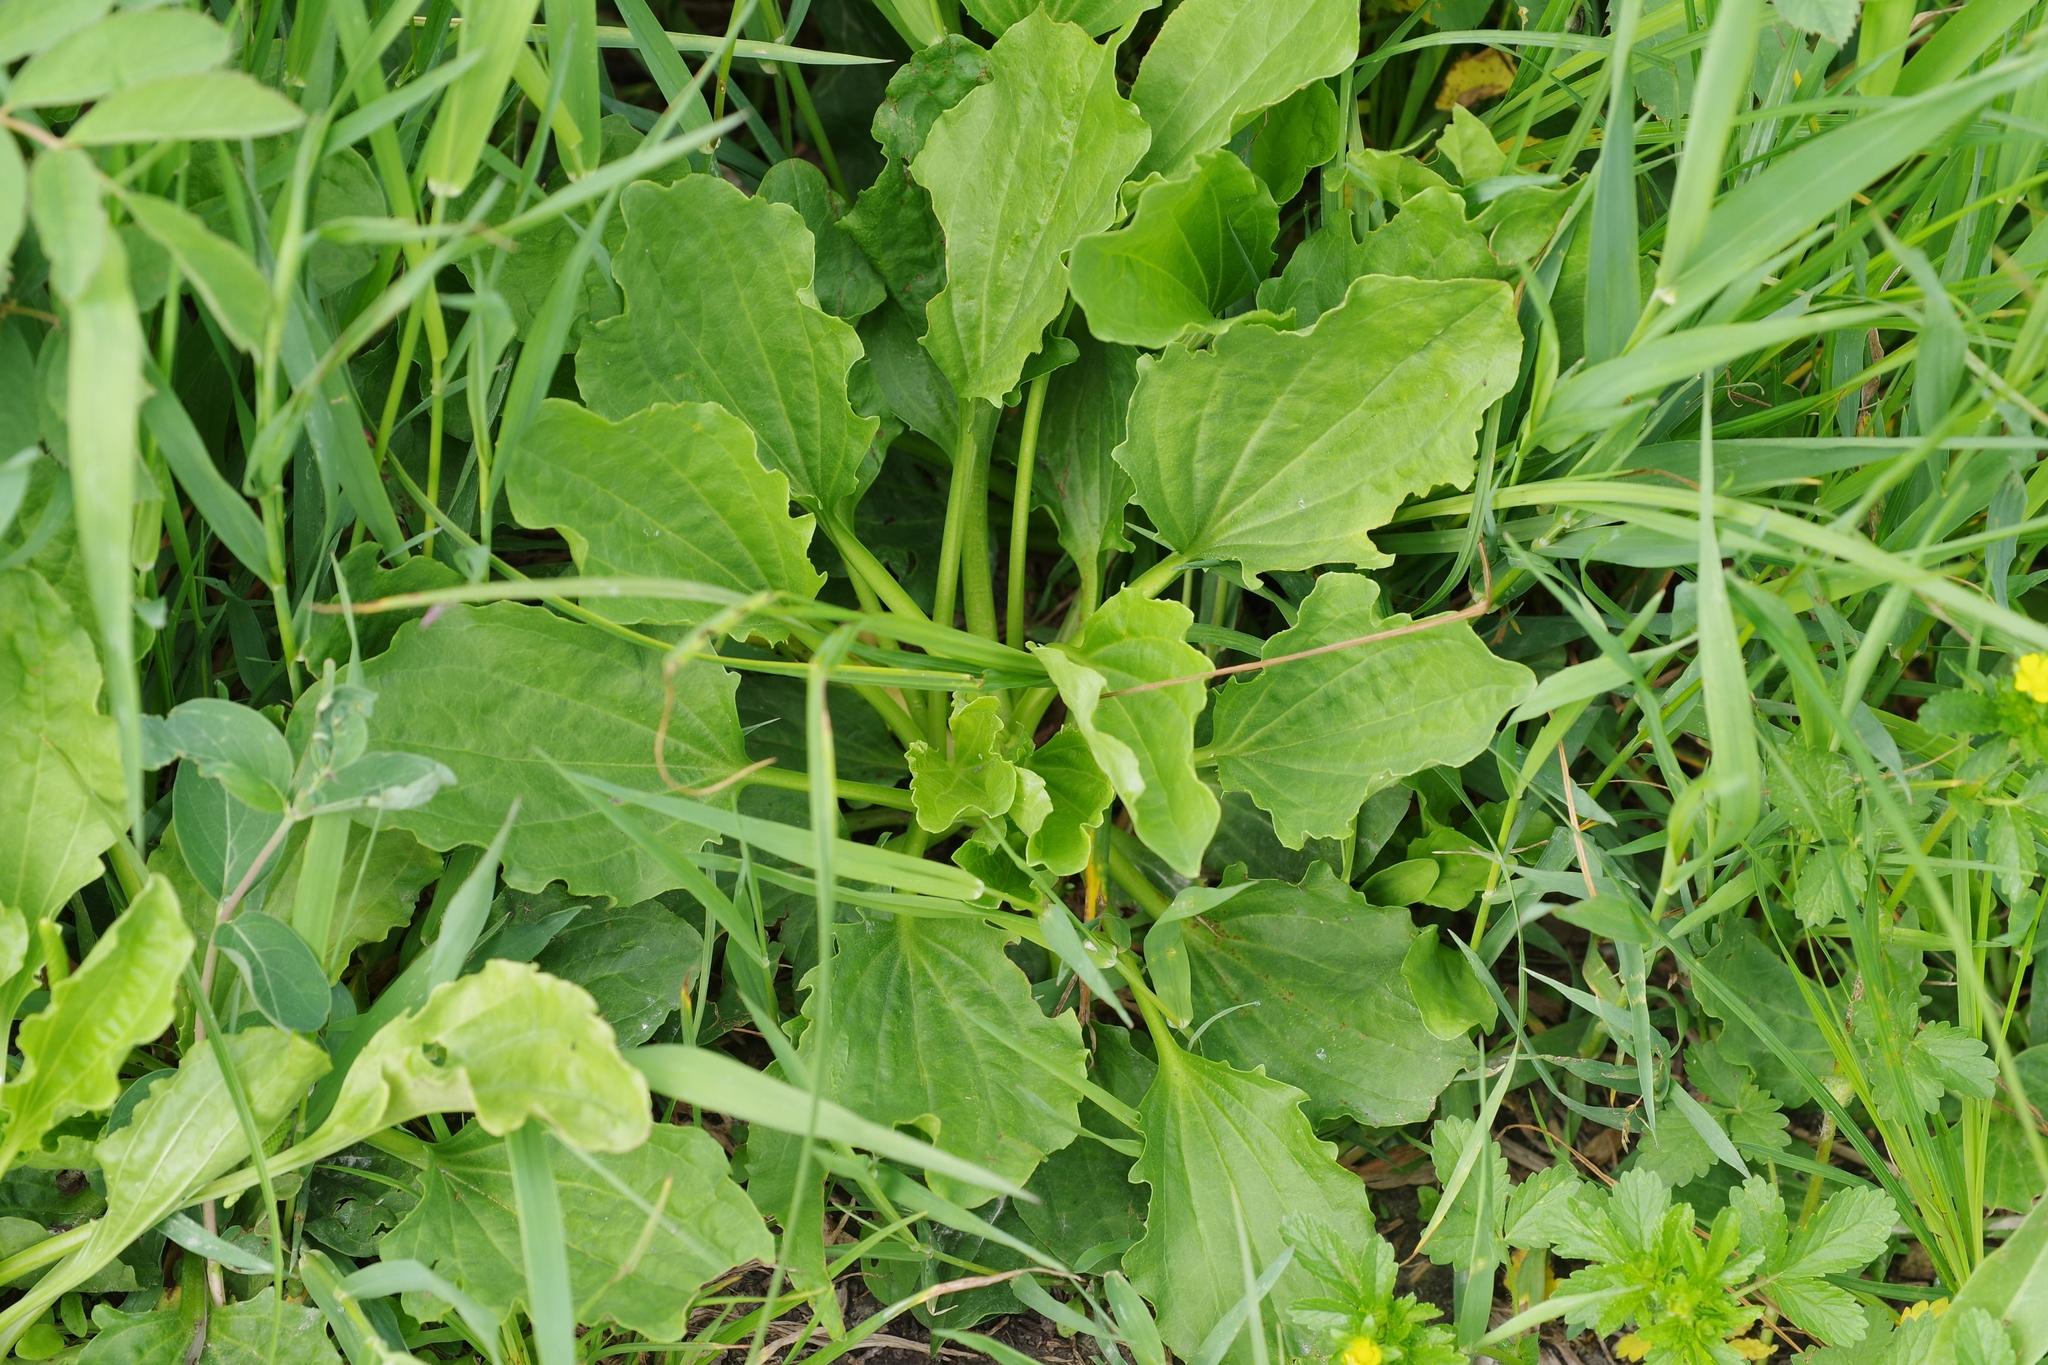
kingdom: Plantae
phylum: Tracheophyta
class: Magnoliopsida
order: Lamiales
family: Plantaginaceae
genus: Plantago
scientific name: Plantago major
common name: Common plantain
